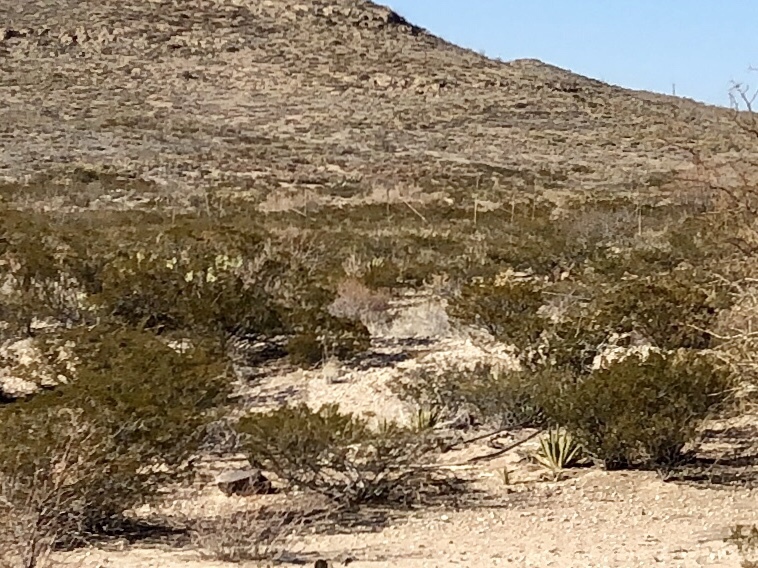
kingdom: Plantae
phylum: Tracheophyta
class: Magnoliopsida
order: Zygophyllales
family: Zygophyllaceae
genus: Larrea
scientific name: Larrea tridentata
